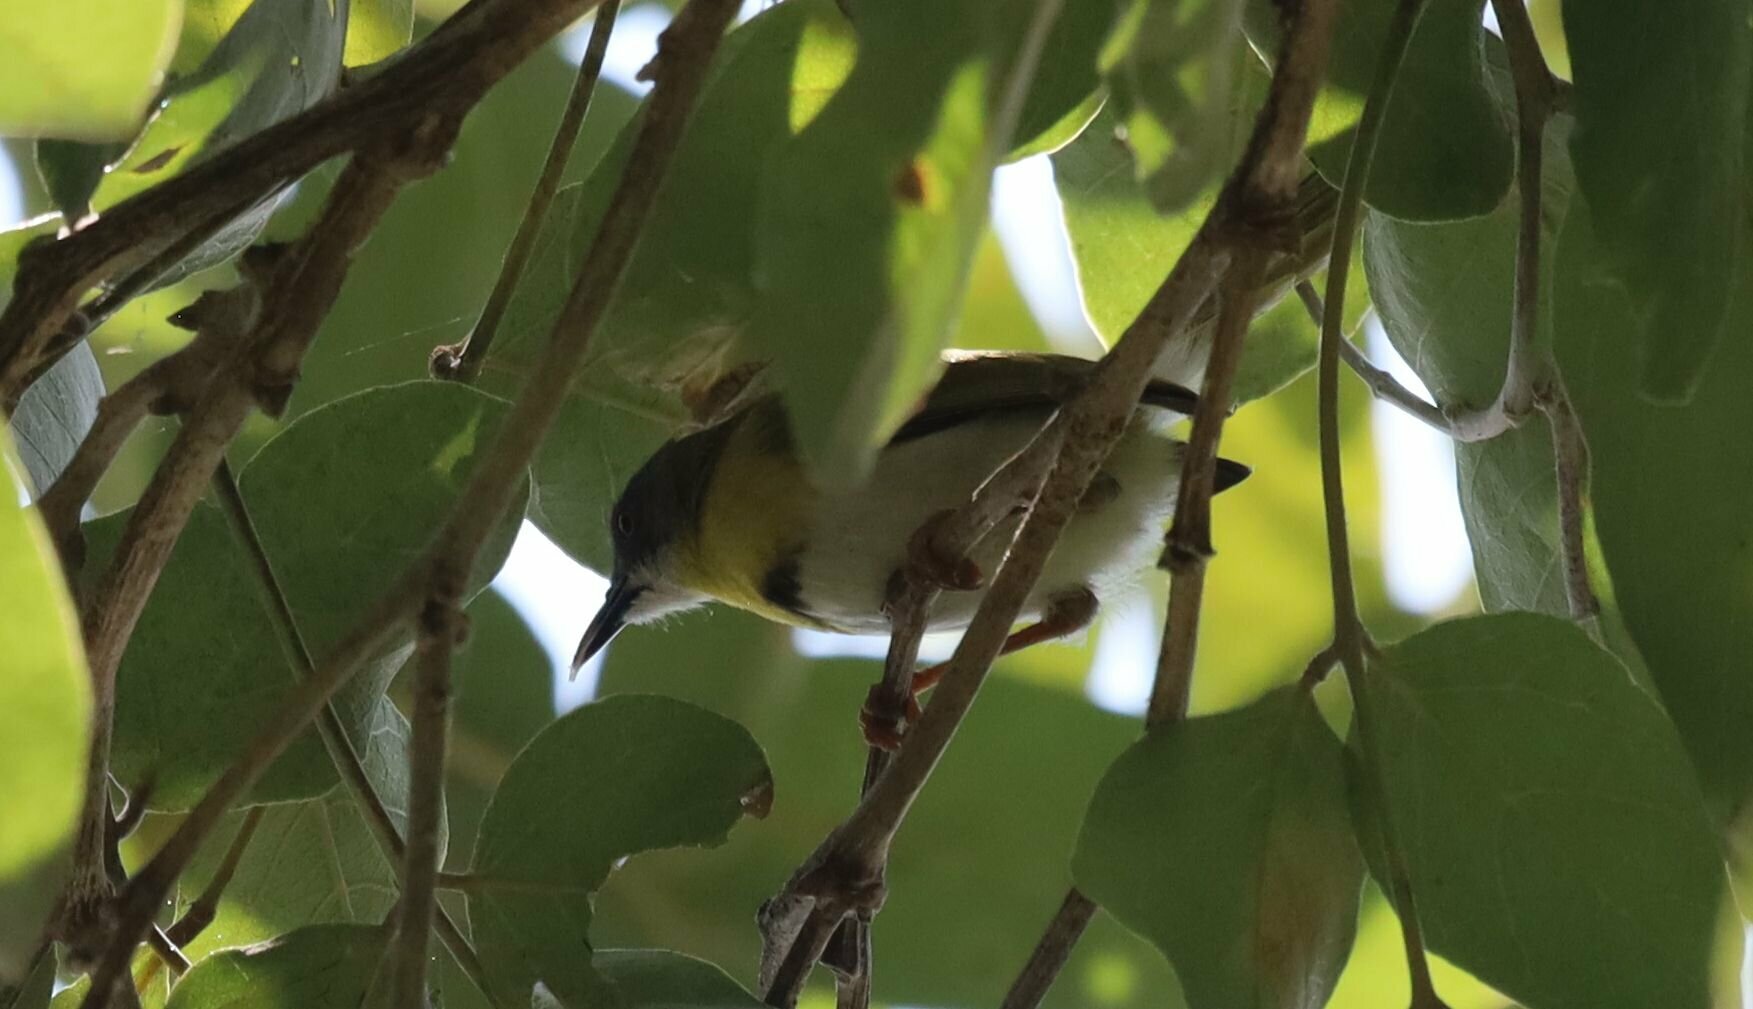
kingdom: Animalia
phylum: Chordata
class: Aves
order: Passeriformes
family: Cisticolidae
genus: Apalis
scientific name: Apalis flavida
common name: Yellow-breasted apalis
